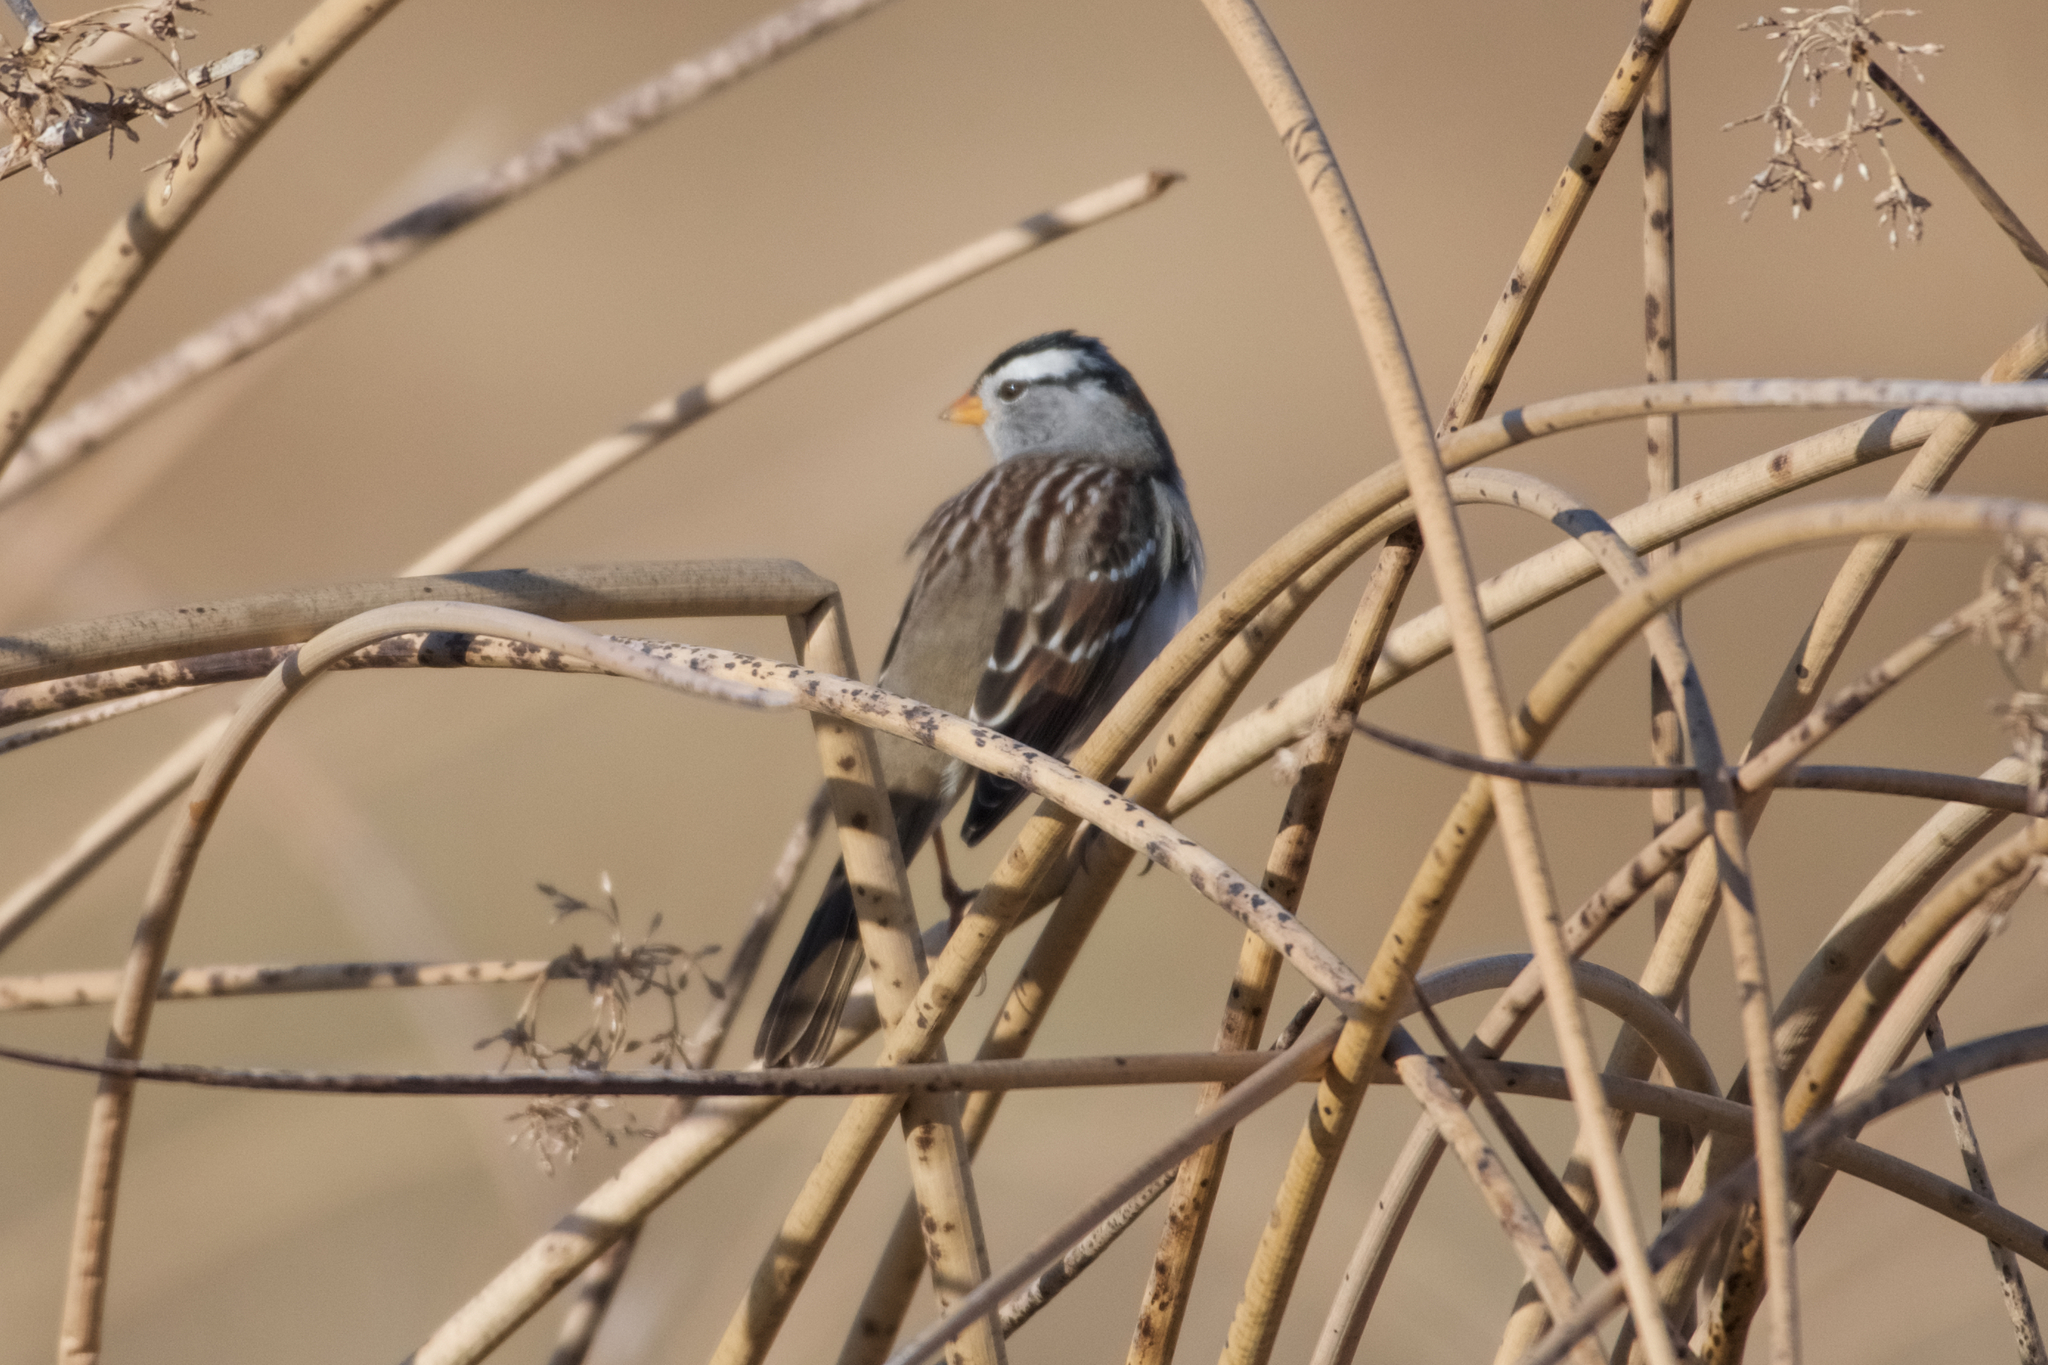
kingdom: Animalia
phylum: Chordata
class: Aves
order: Passeriformes
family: Passerellidae
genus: Zonotrichia
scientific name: Zonotrichia leucophrys
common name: White-crowned sparrow
